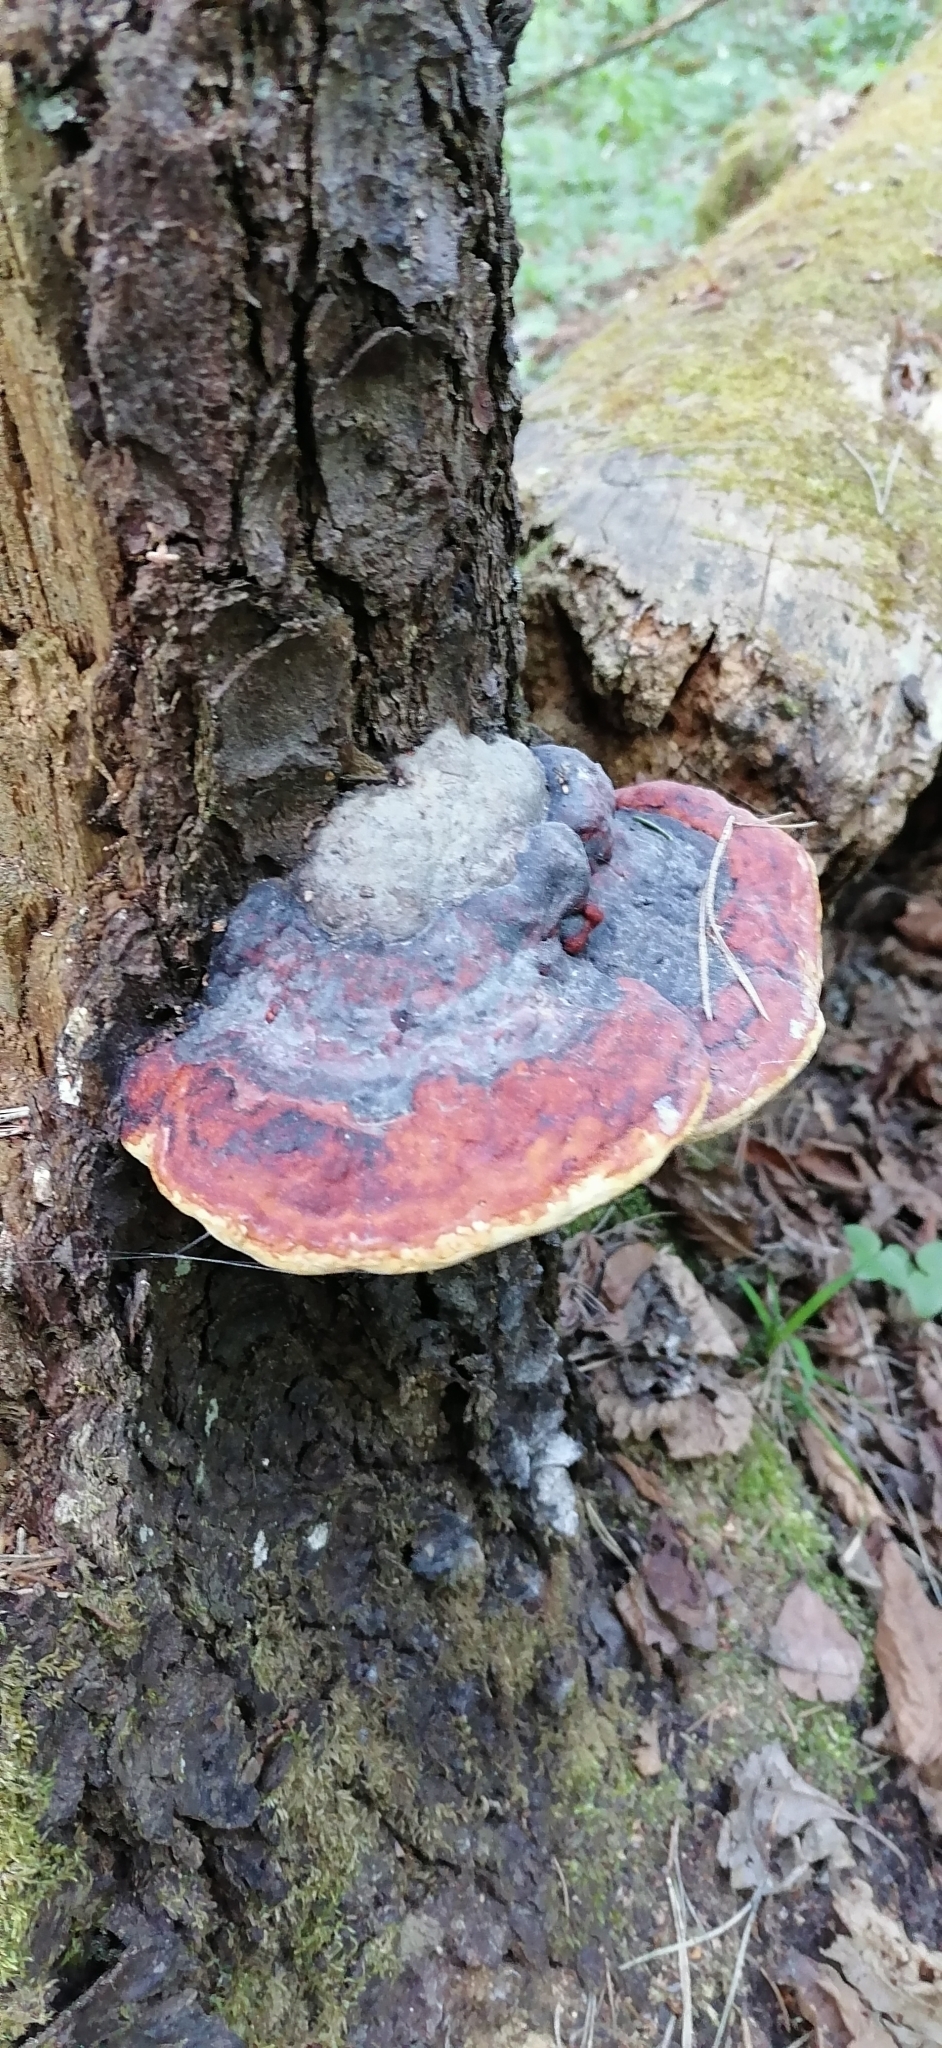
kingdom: Fungi
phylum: Basidiomycota
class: Agaricomycetes
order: Polyporales
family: Fomitopsidaceae
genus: Fomitopsis
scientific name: Fomitopsis pinicola
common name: Red-belted bracket
